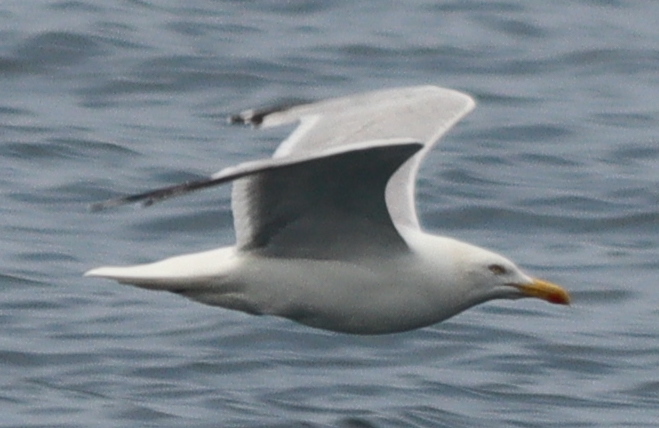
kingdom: Animalia
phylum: Chordata
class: Aves
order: Charadriiformes
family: Laridae
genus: Larus
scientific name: Larus argentatus
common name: Herring gull
